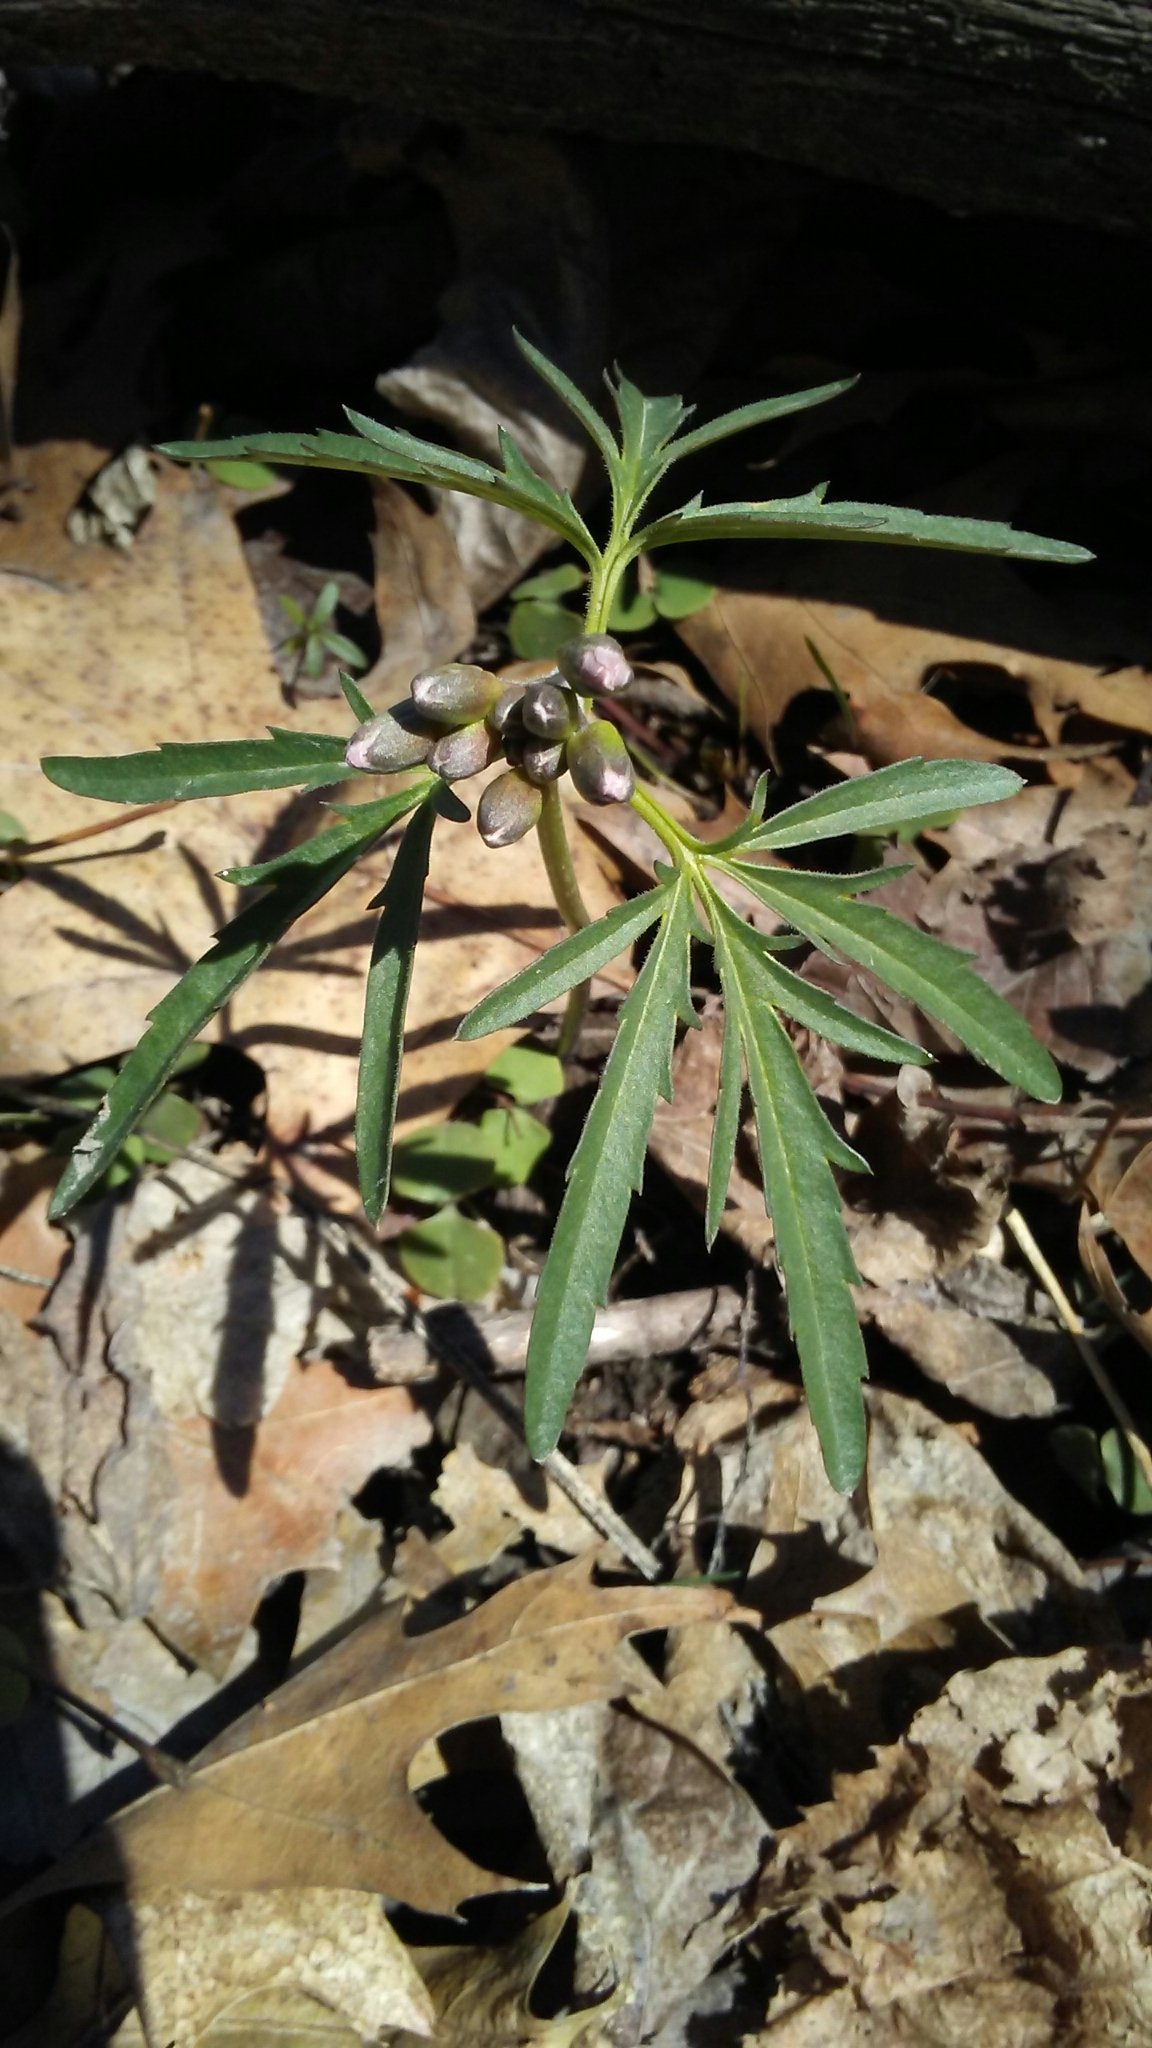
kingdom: Plantae
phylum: Tracheophyta
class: Magnoliopsida
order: Brassicales
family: Brassicaceae
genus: Cardamine
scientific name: Cardamine concatenata
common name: Cut-leaf toothcup
